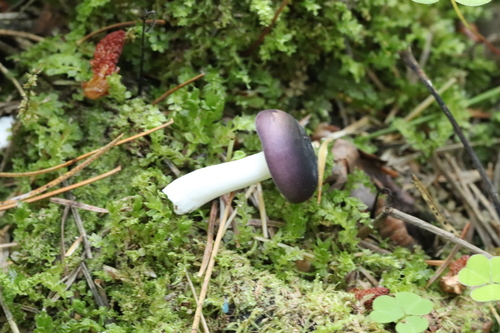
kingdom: Fungi
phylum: Basidiomycota
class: Agaricomycetes
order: Russulales
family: Russulaceae
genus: Russula
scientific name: Russula
